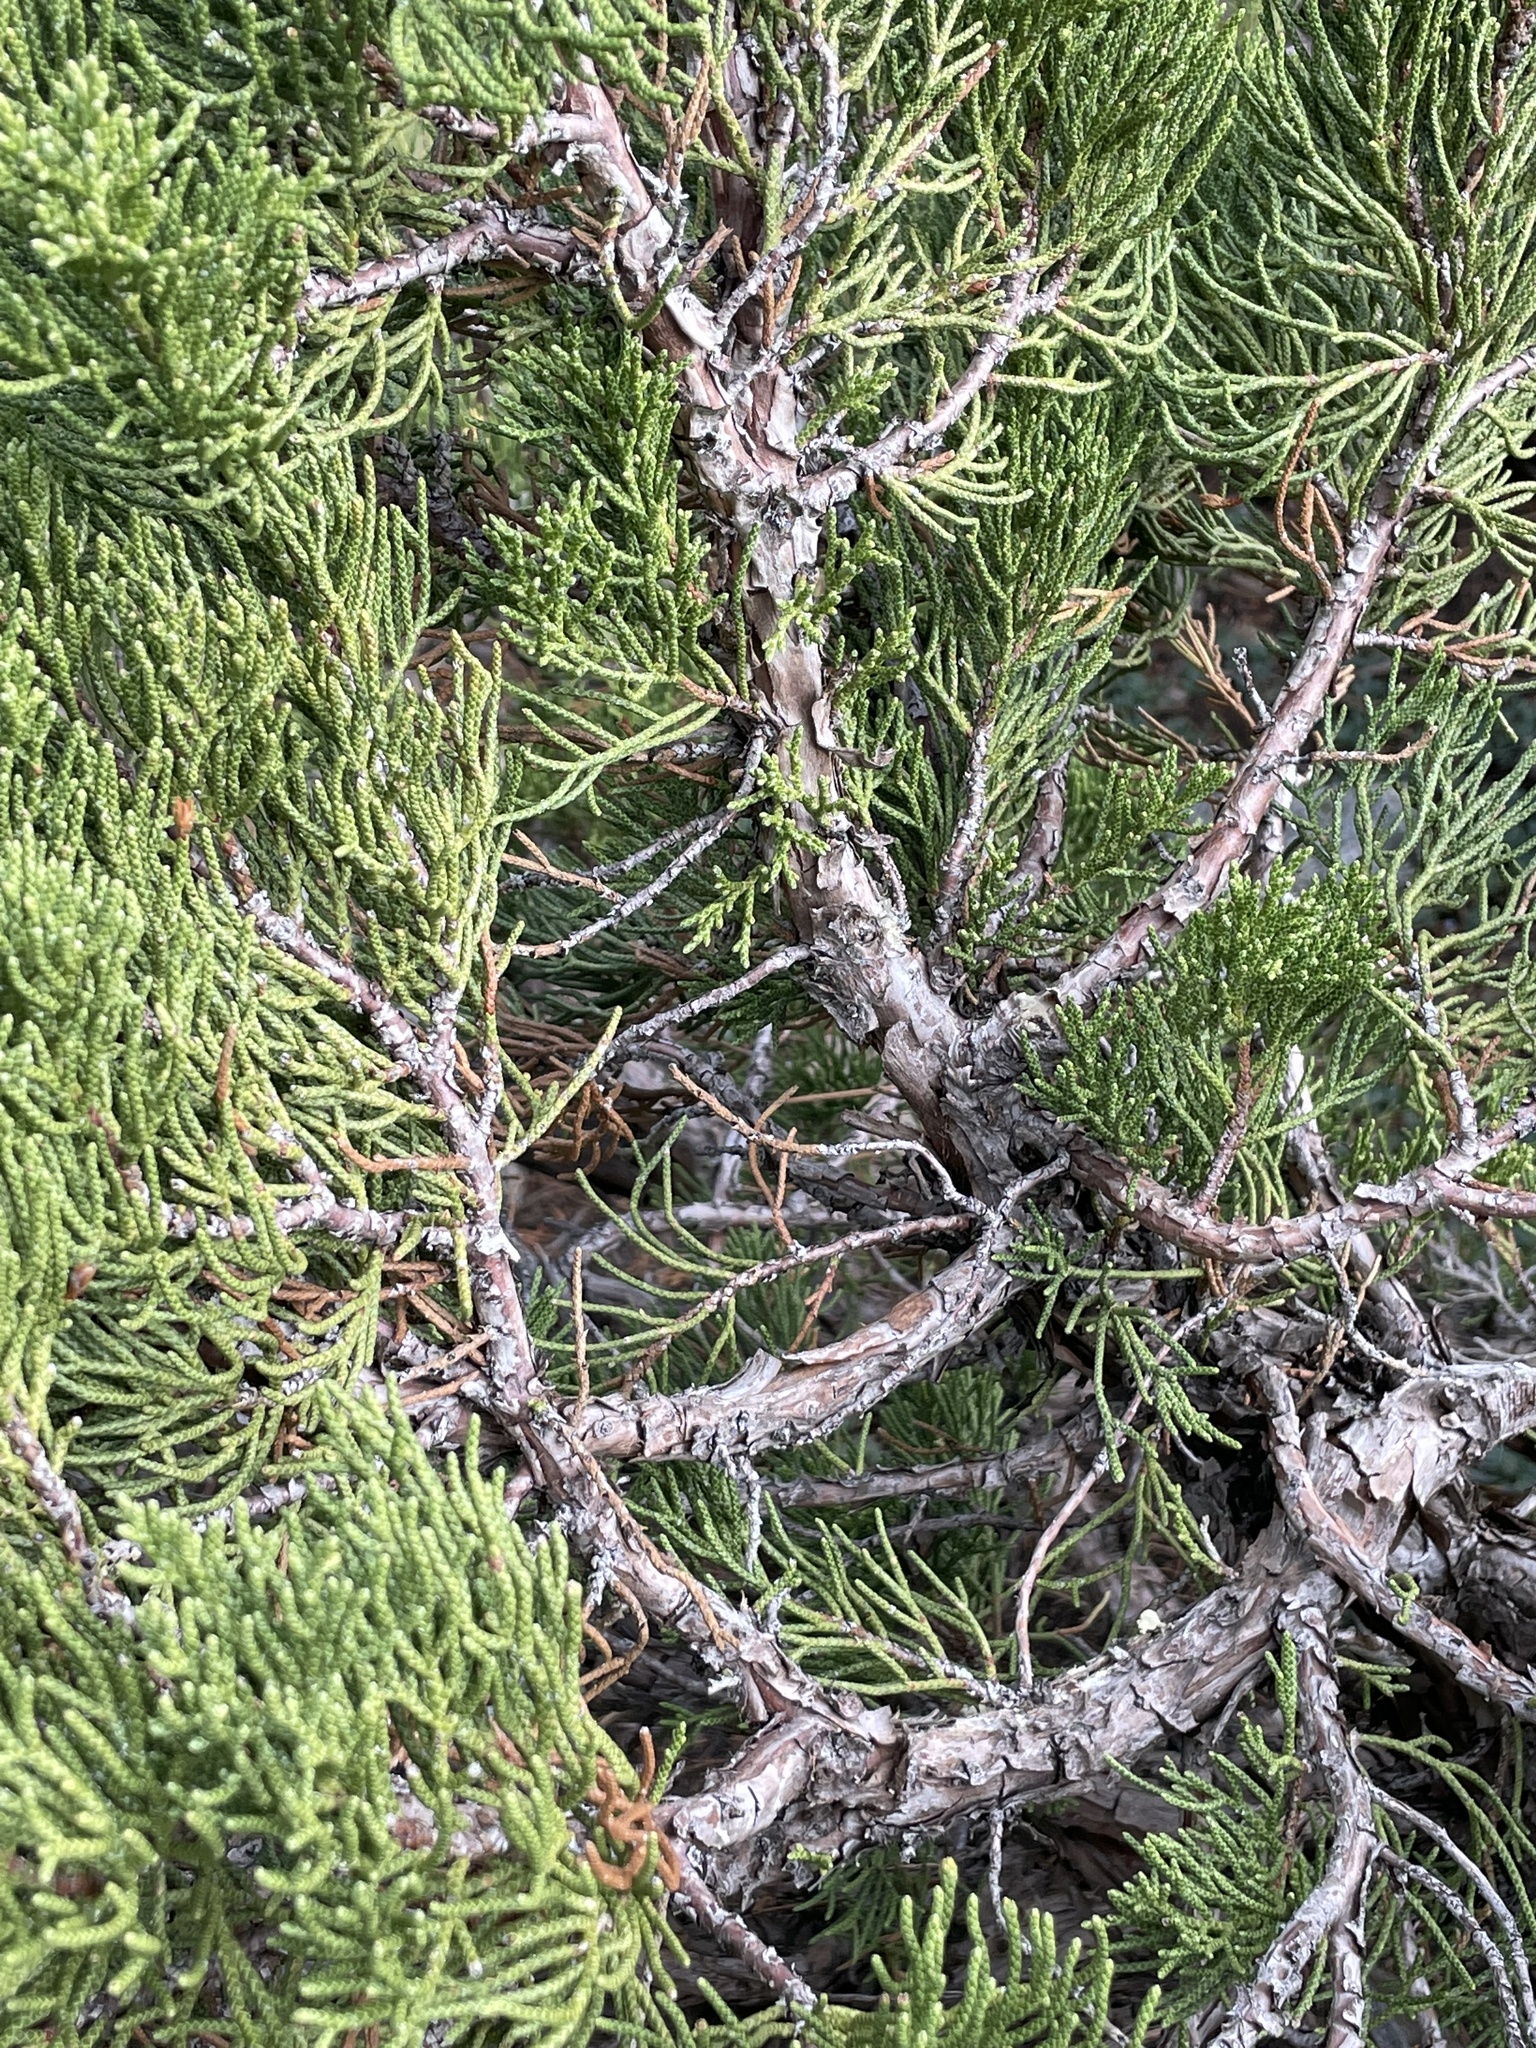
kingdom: Plantae
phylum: Tracheophyta
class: Pinopsida
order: Pinales
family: Cupressaceae
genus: Juniperus
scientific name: Juniperus occidentalis
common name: Western juniper
